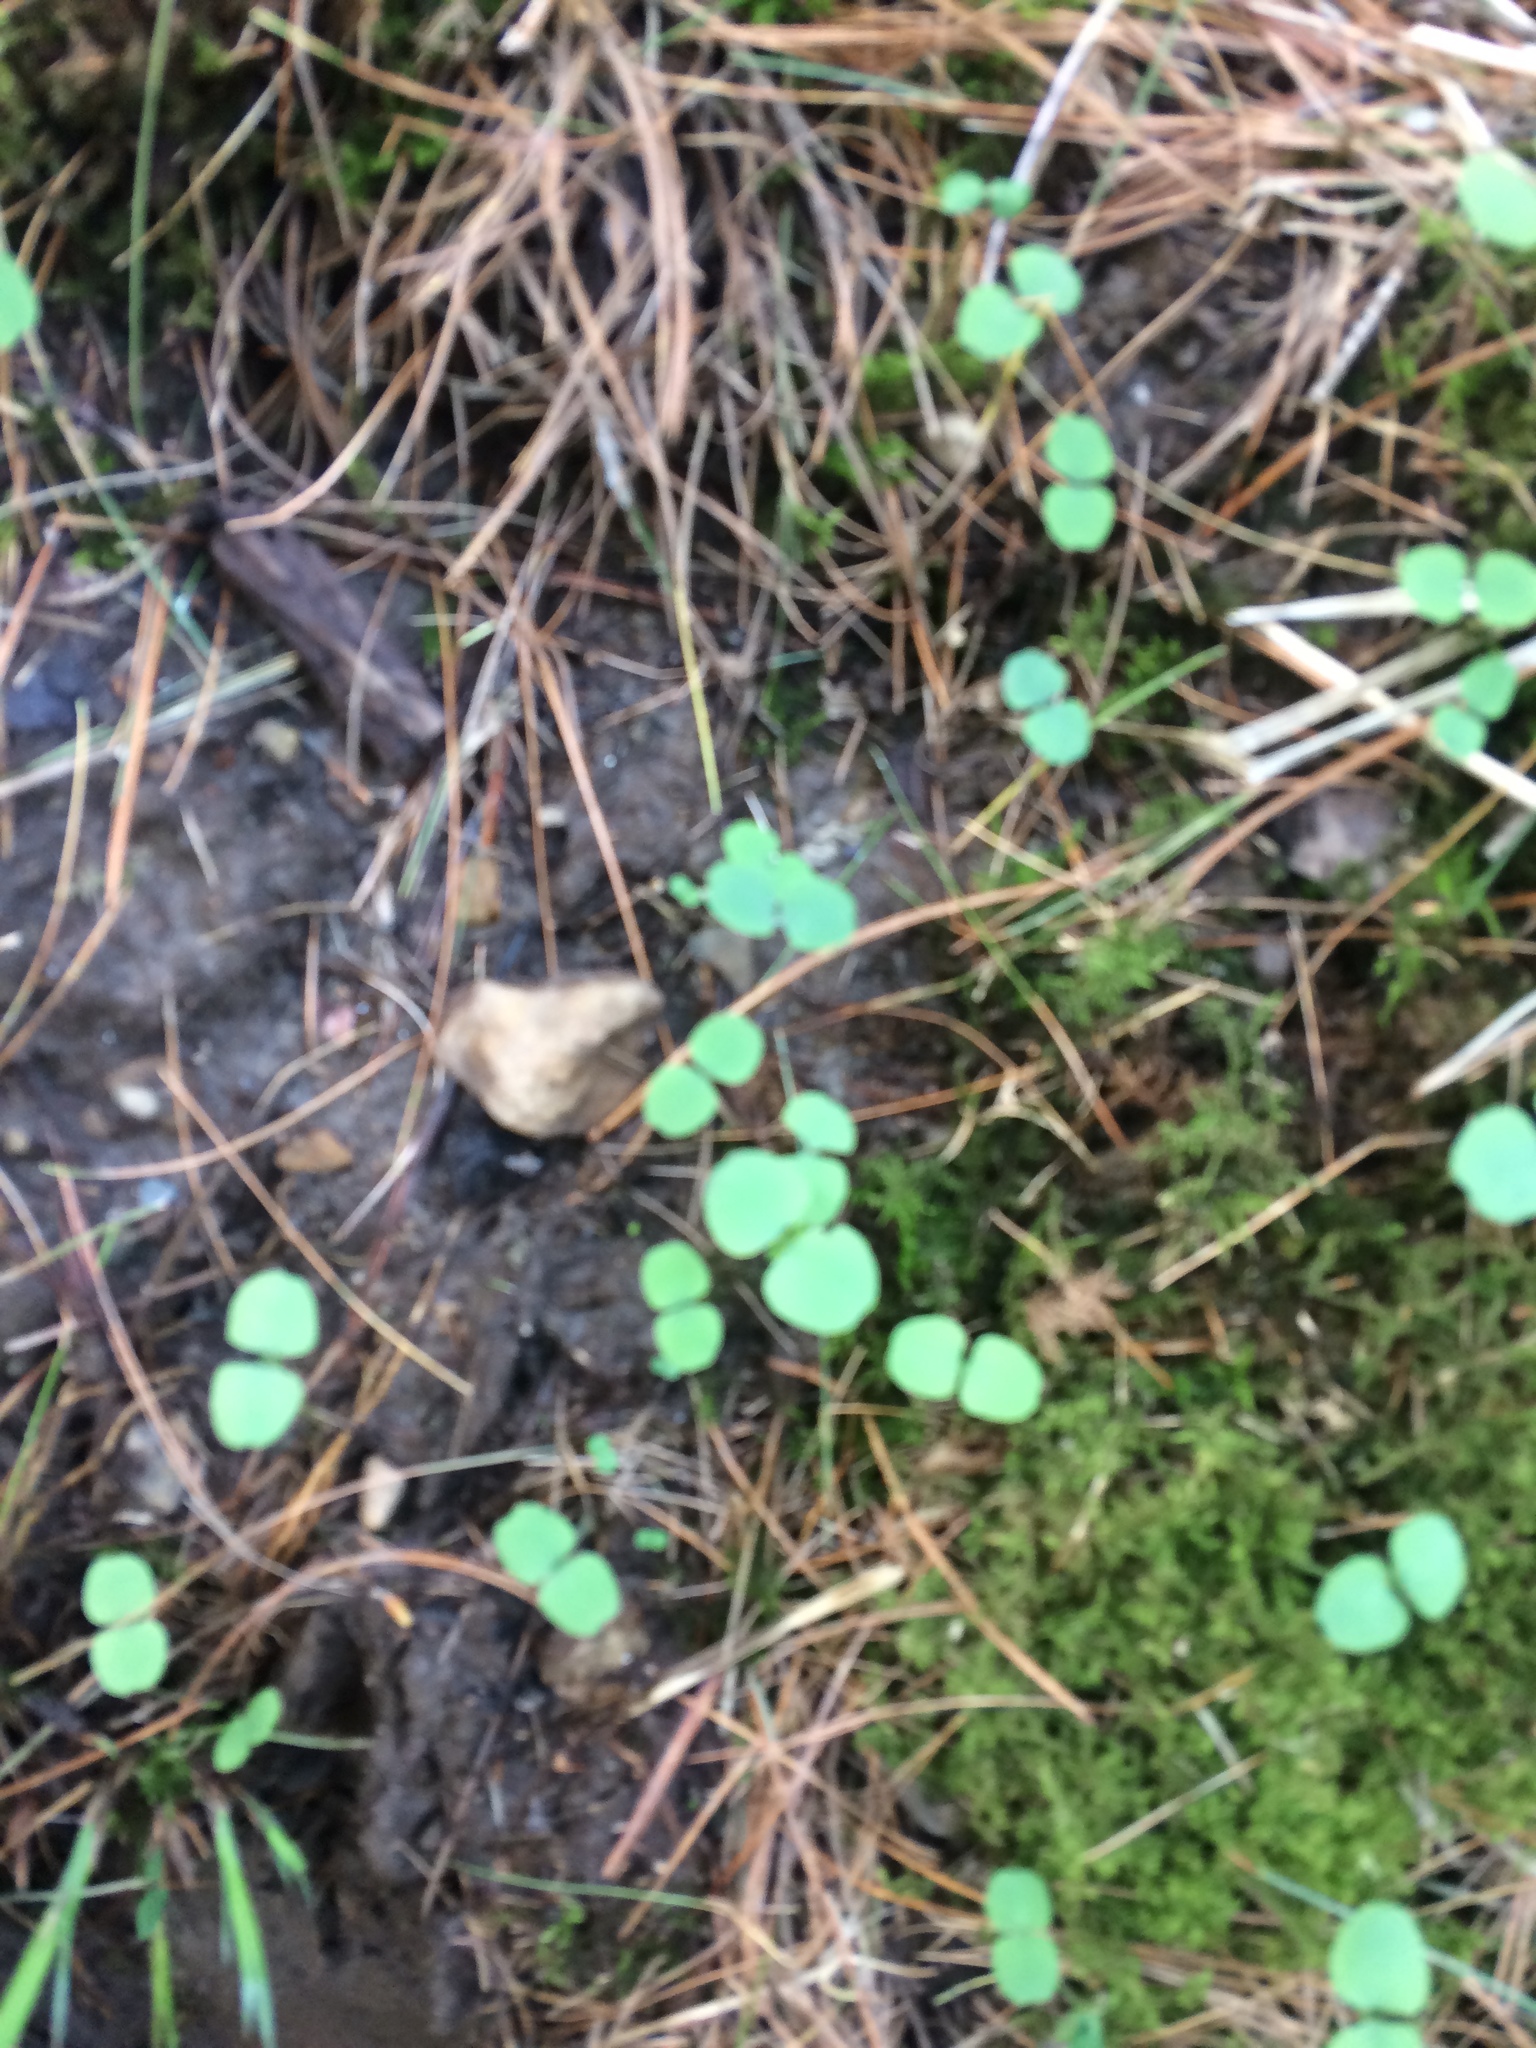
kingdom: Plantae
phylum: Tracheophyta
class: Magnoliopsida
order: Ericales
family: Balsaminaceae
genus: Impatiens
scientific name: Impatiens capensis
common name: Orange balsam
